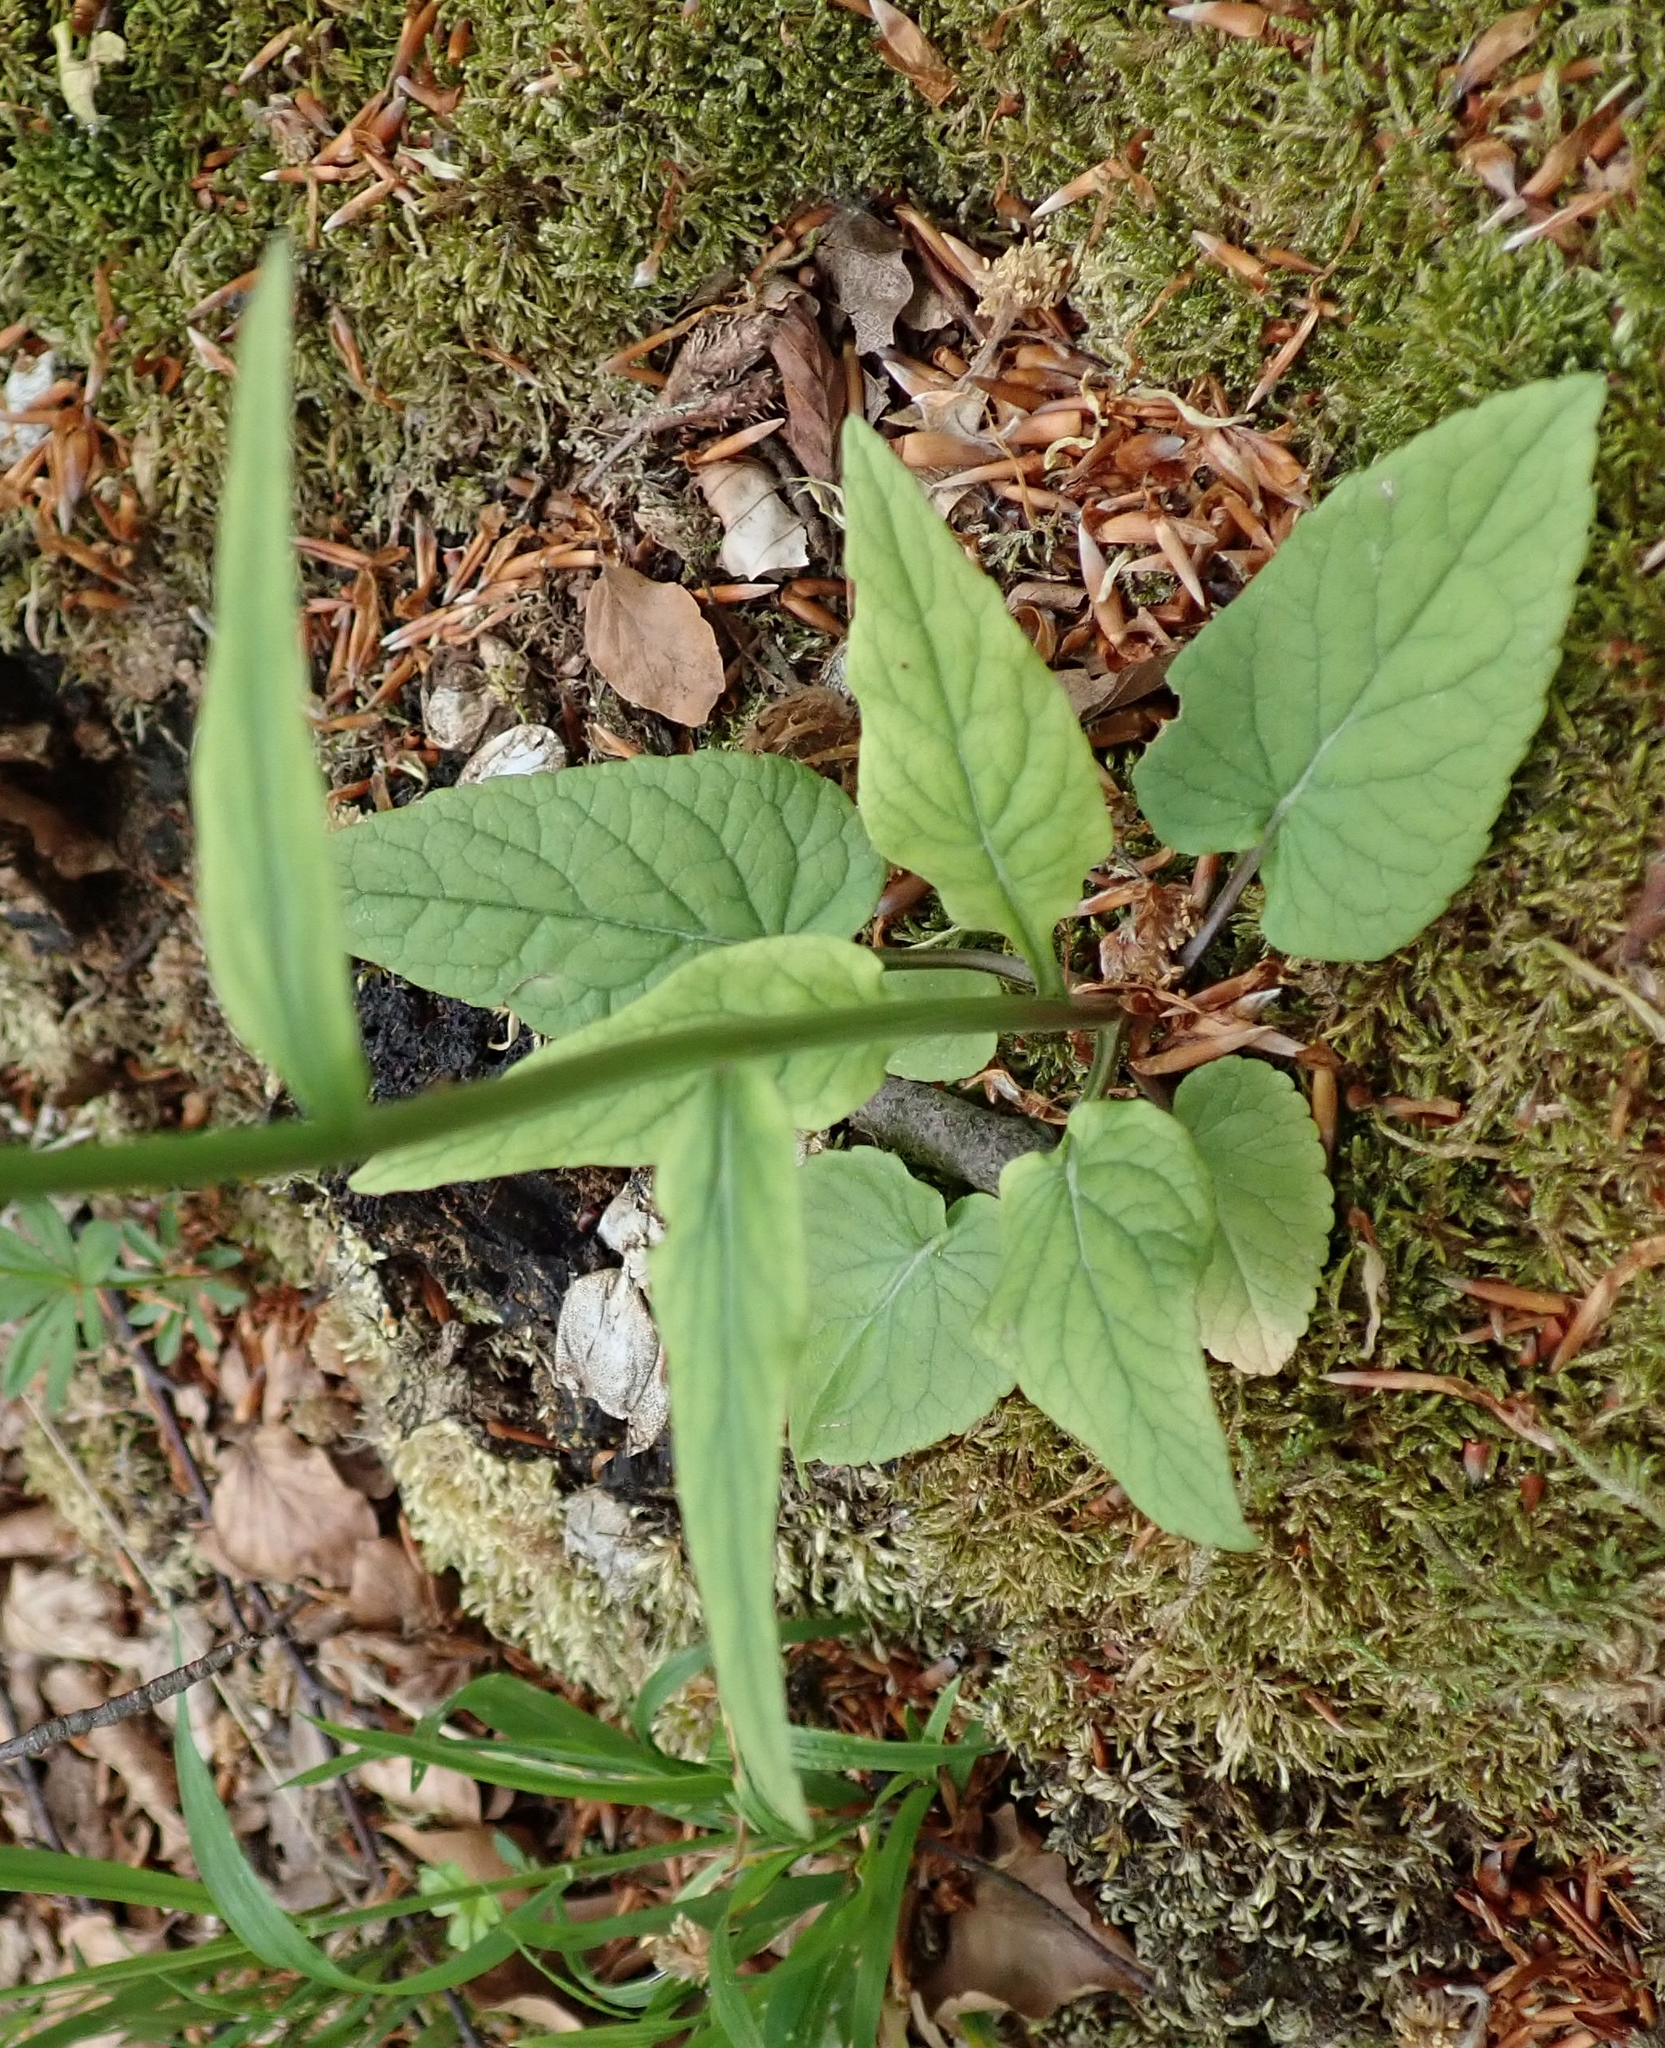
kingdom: Plantae
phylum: Tracheophyta
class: Magnoliopsida
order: Asterales
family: Campanulaceae
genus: Phyteuma
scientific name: Phyteuma nigrum
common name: Black rampion
